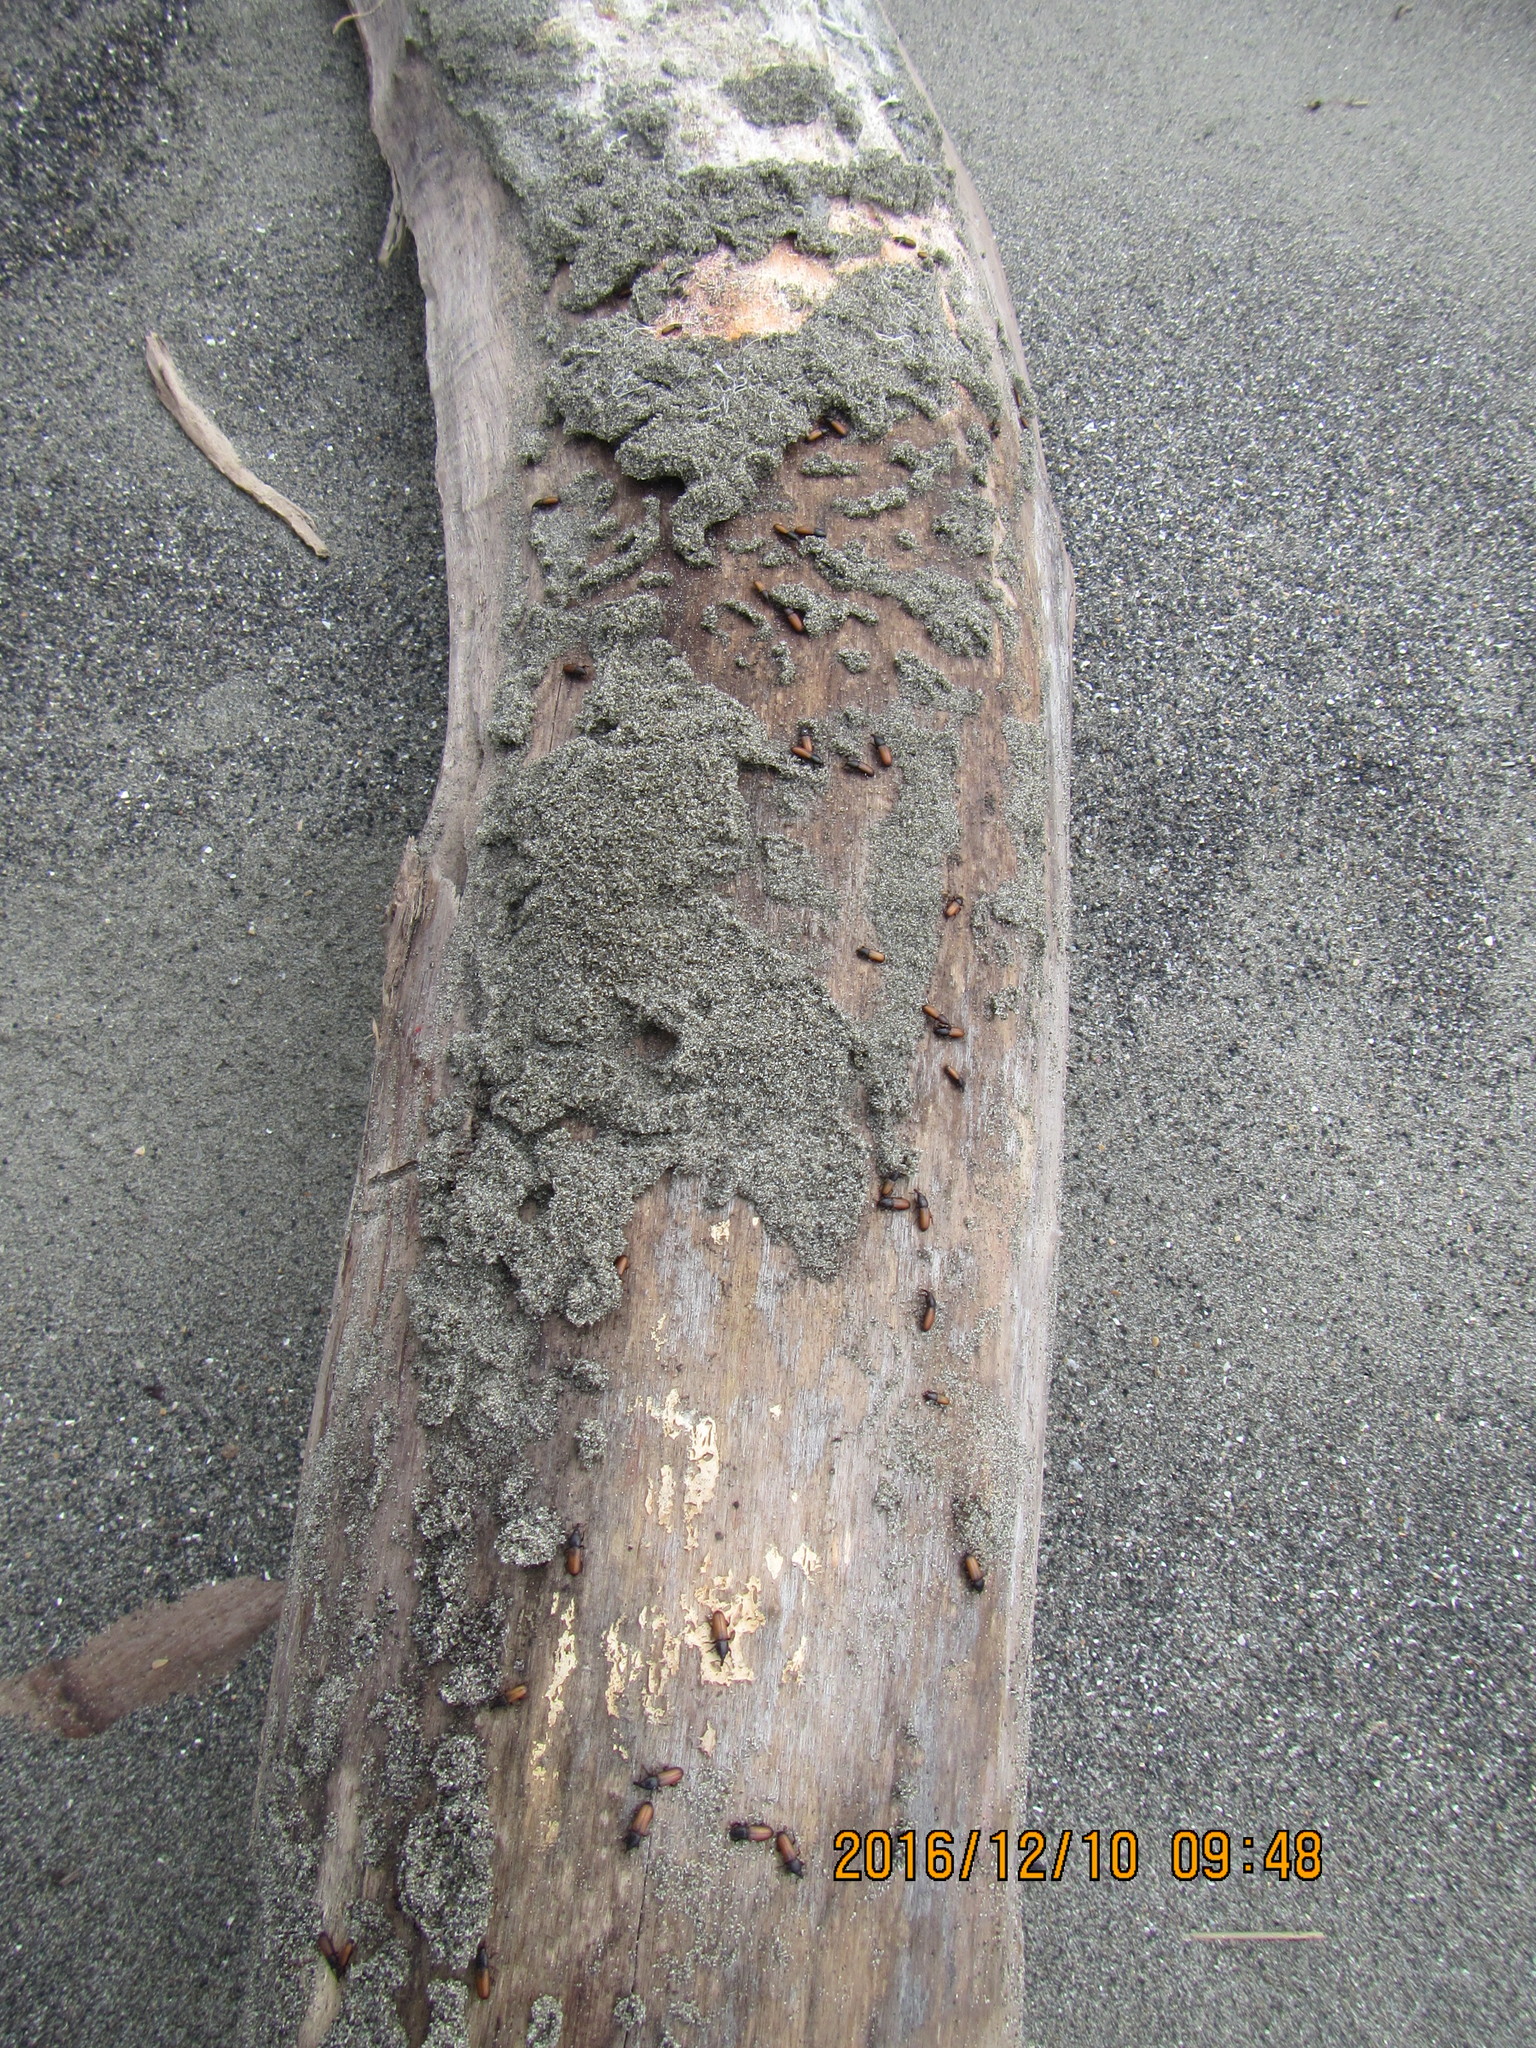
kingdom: Animalia
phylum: Arthropoda
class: Insecta
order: Coleoptera
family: Curculionidae
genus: Mesites
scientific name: Mesites pallidipennis
